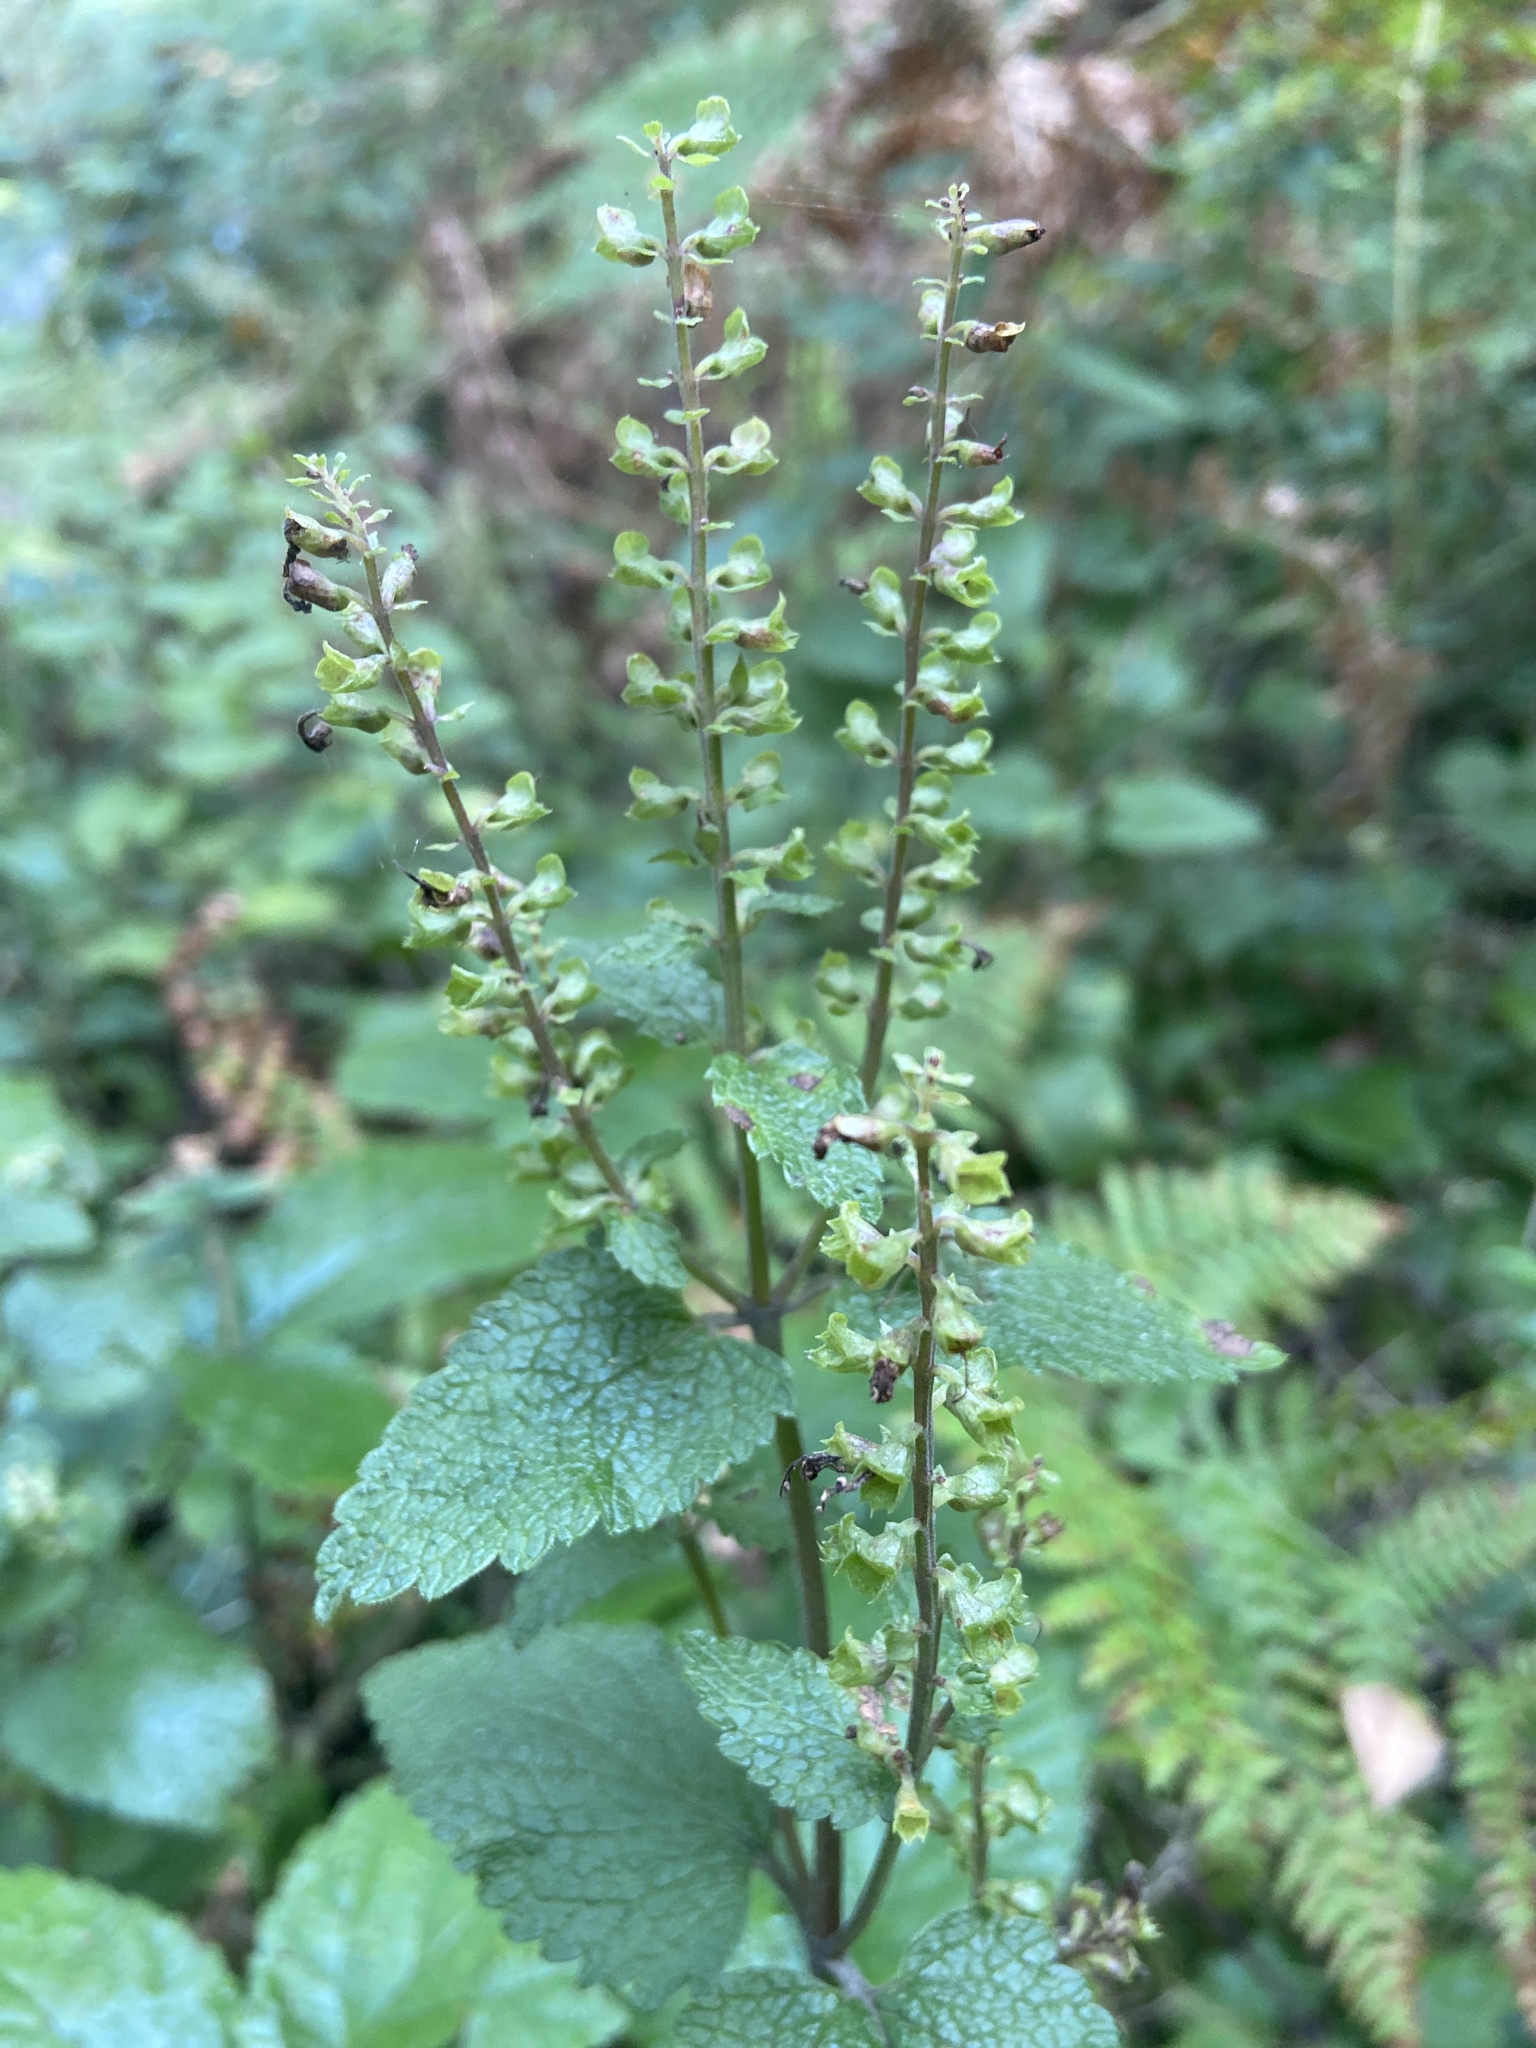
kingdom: Plantae
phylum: Tracheophyta
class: Magnoliopsida
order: Lamiales
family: Lamiaceae
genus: Teucrium
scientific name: Teucrium scorodonia
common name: Woodland germander
